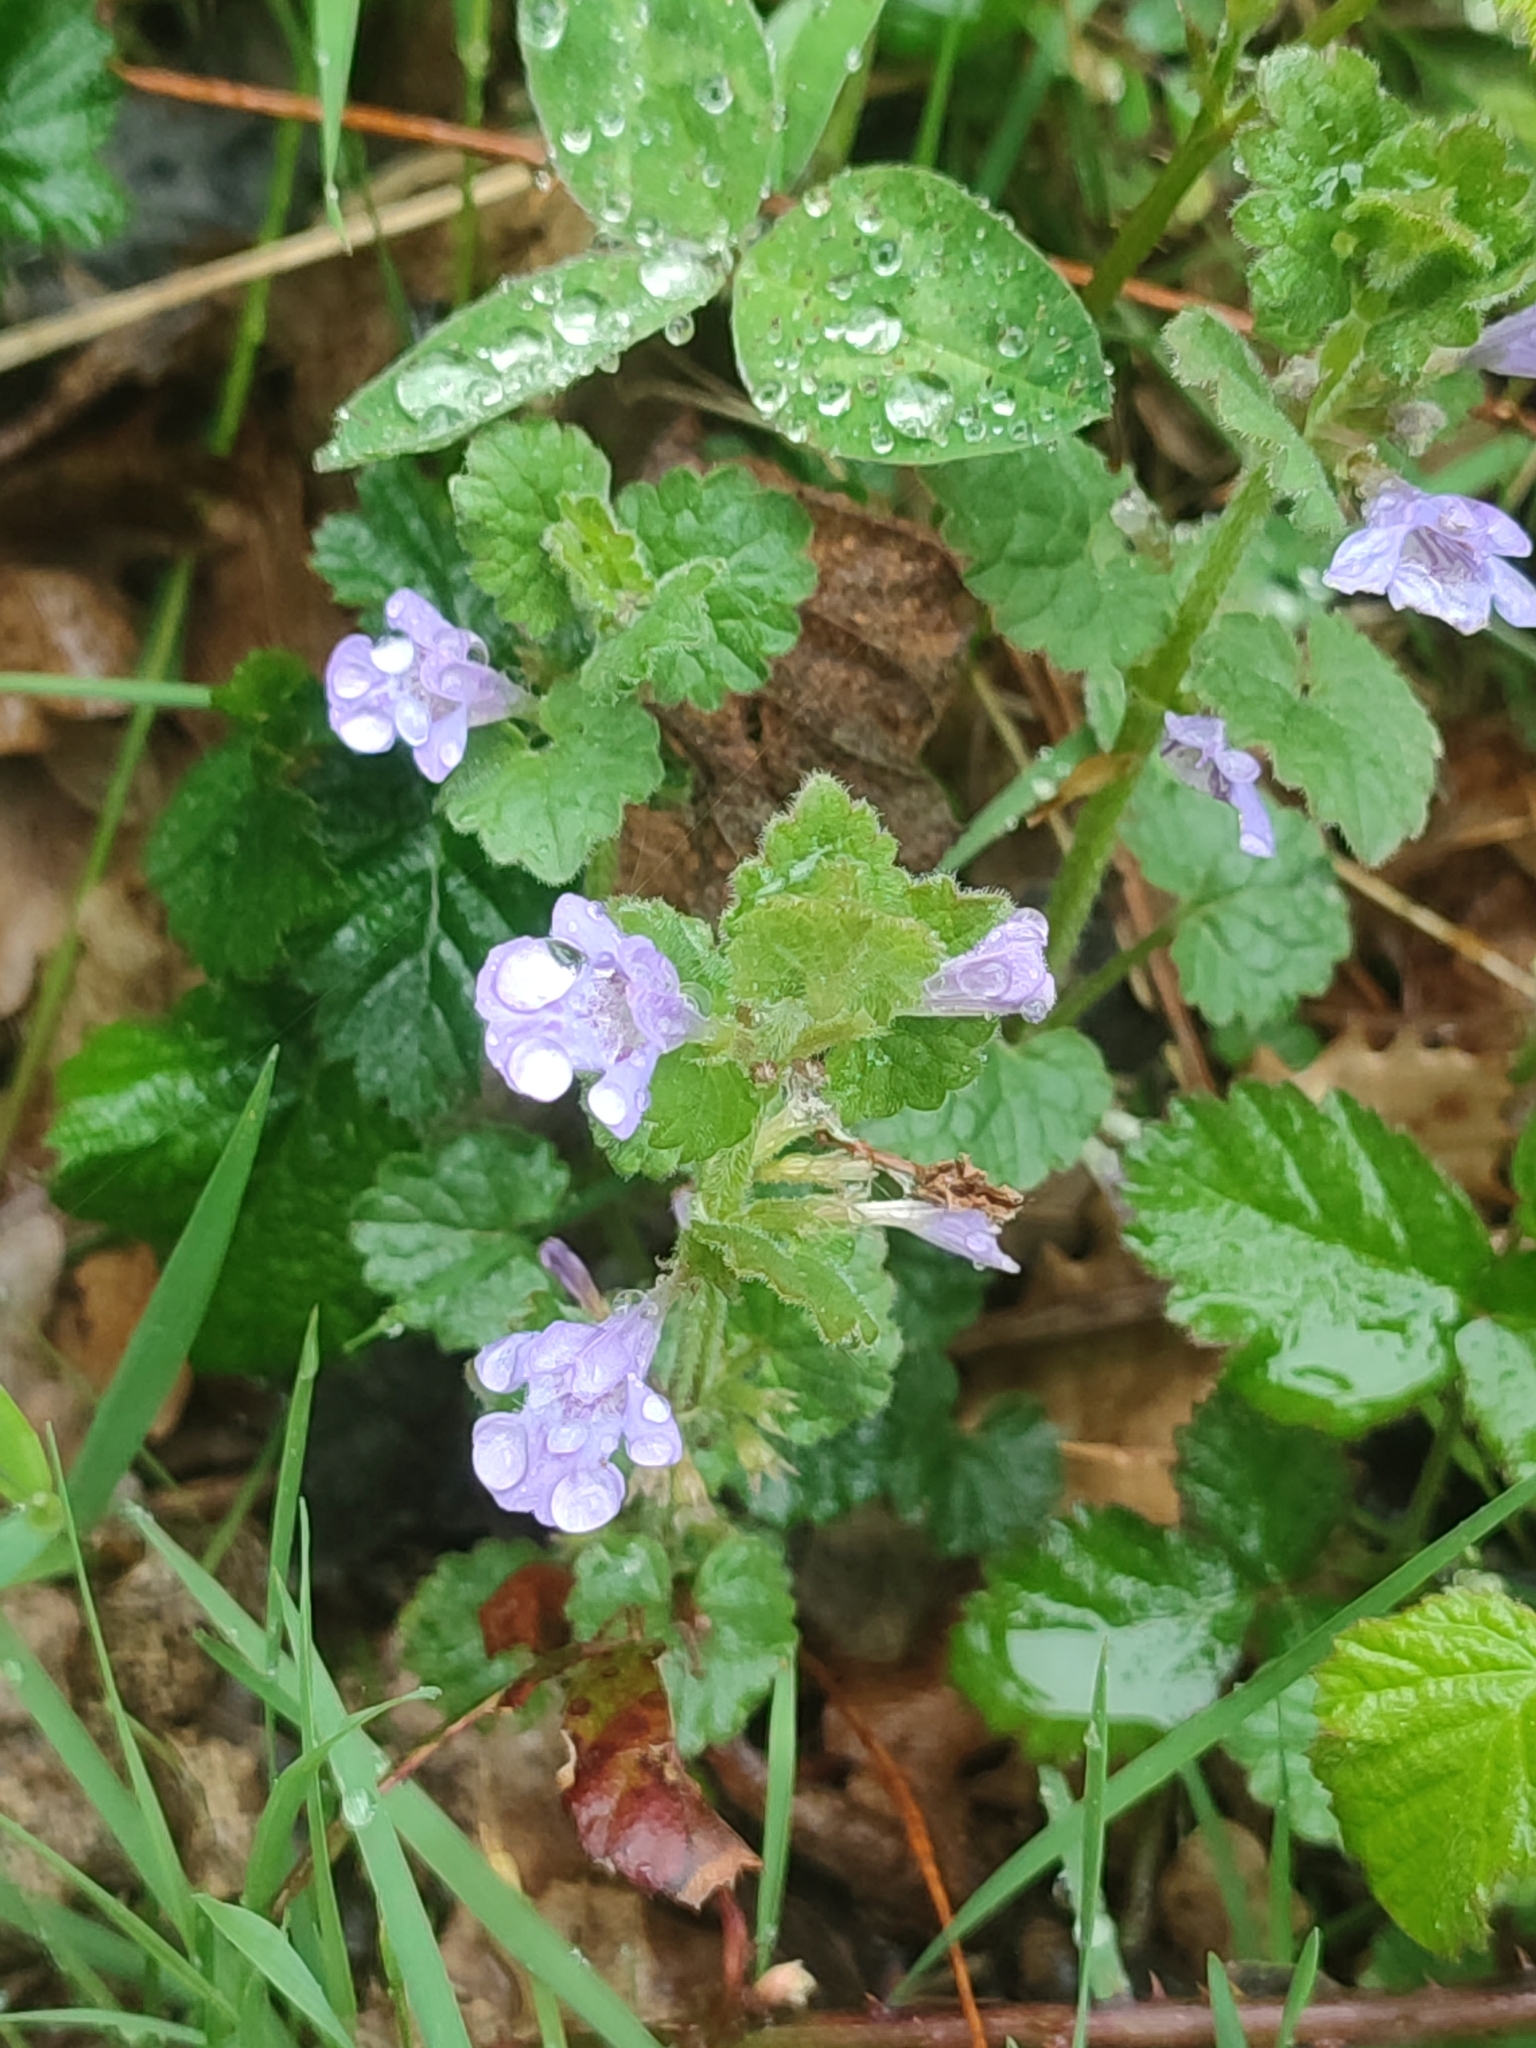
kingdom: Plantae
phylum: Tracheophyta
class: Magnoliopsida
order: Lamiales
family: Lamiaceae
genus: Glechoma
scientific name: Glechoma hederacea
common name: Ground ivy
